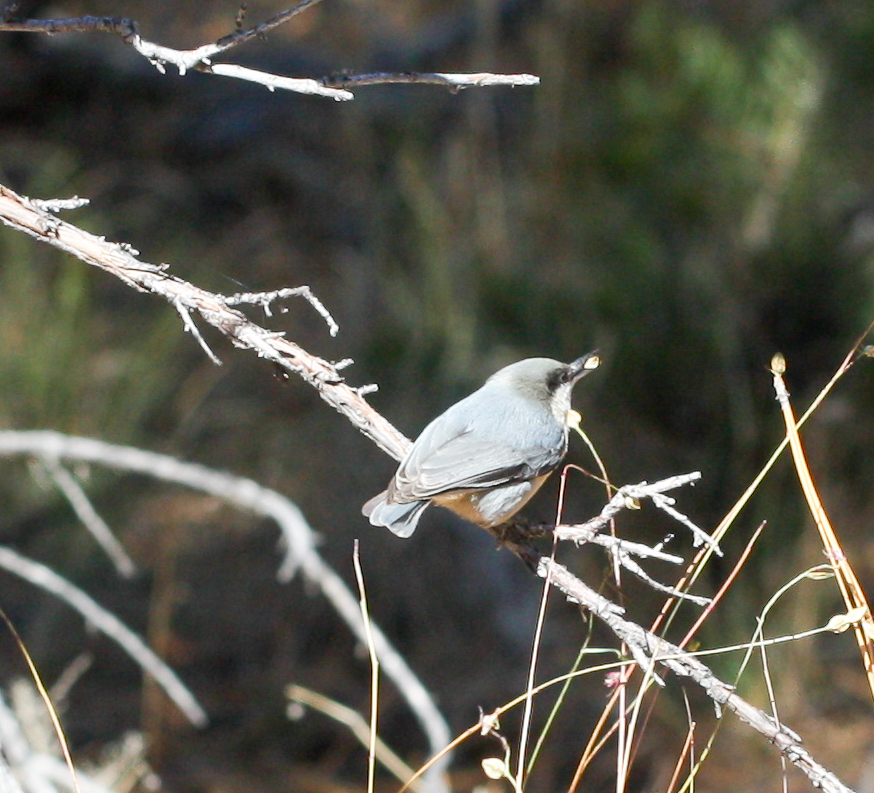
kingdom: Animalia
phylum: Chordata
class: Aves
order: Passeriformes
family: Sittidae
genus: Sitta
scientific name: Sitta pygmaea
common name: Pygmy nuthatch
